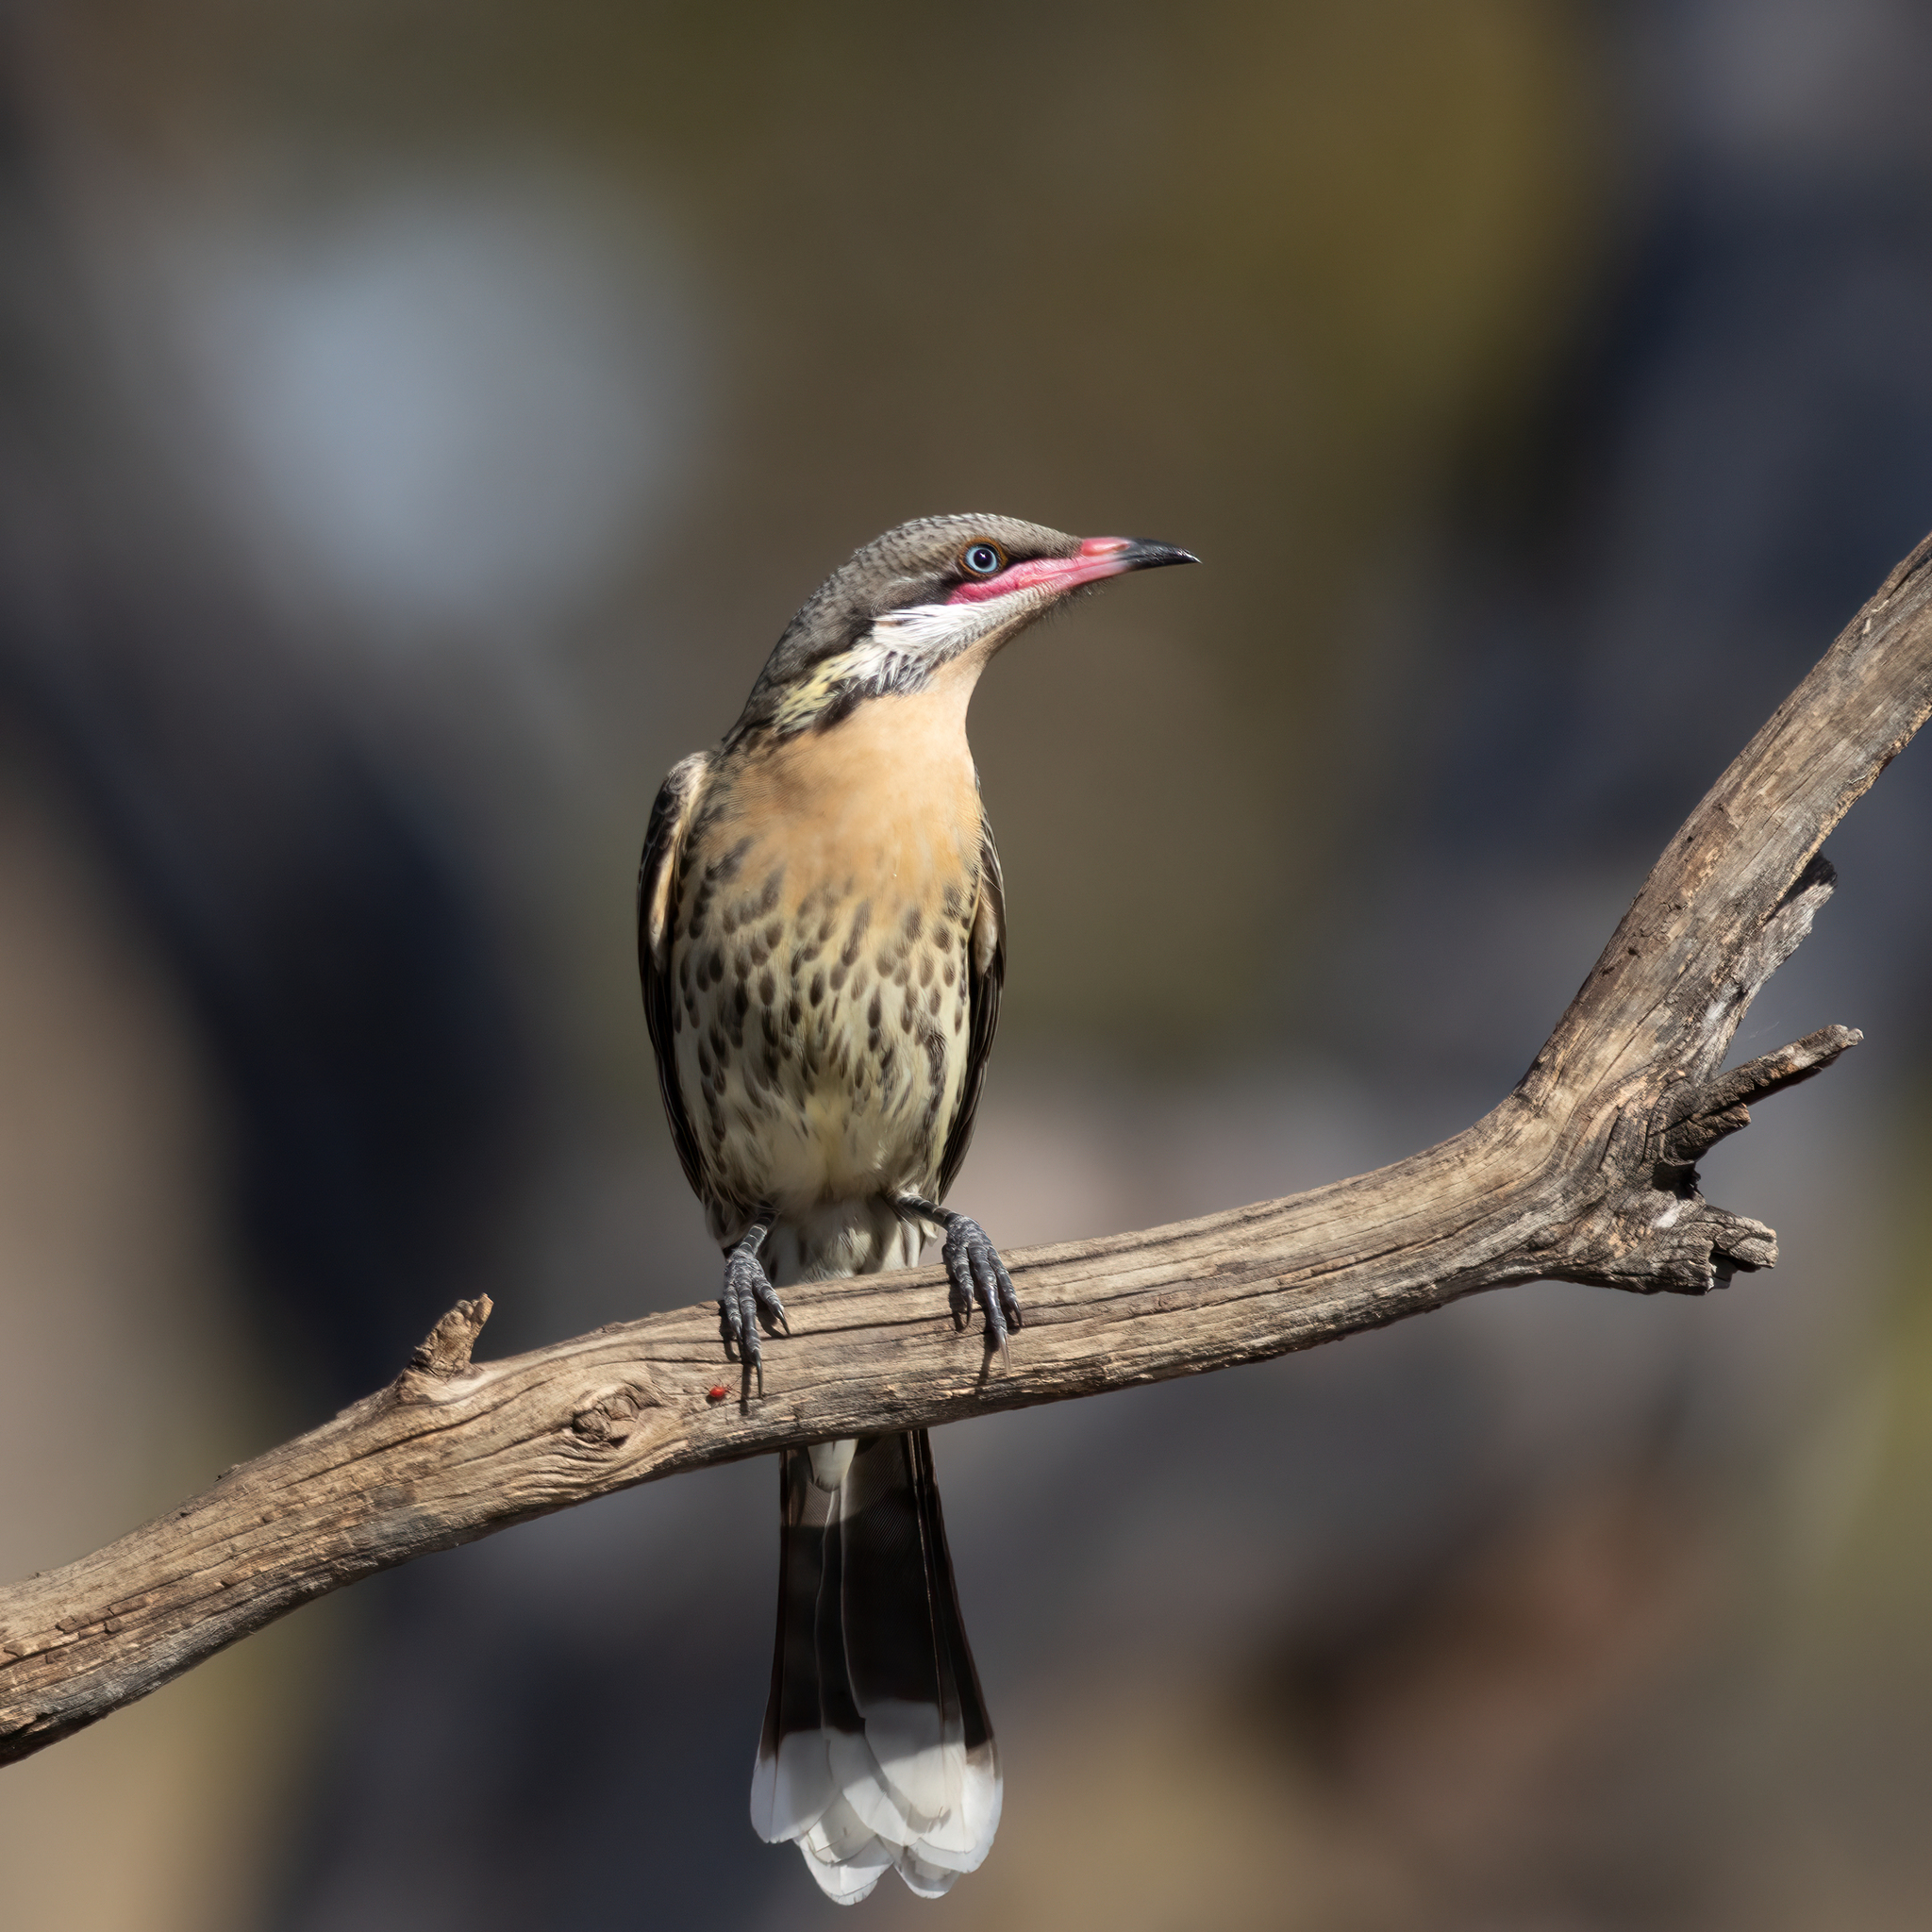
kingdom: Animalia
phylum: Chordata
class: Aves
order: Passeriformes
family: Meliphagidae
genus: Acanthagenys
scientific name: Acanthagenys rufogularis
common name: Spiny-cheeked honeyeater
